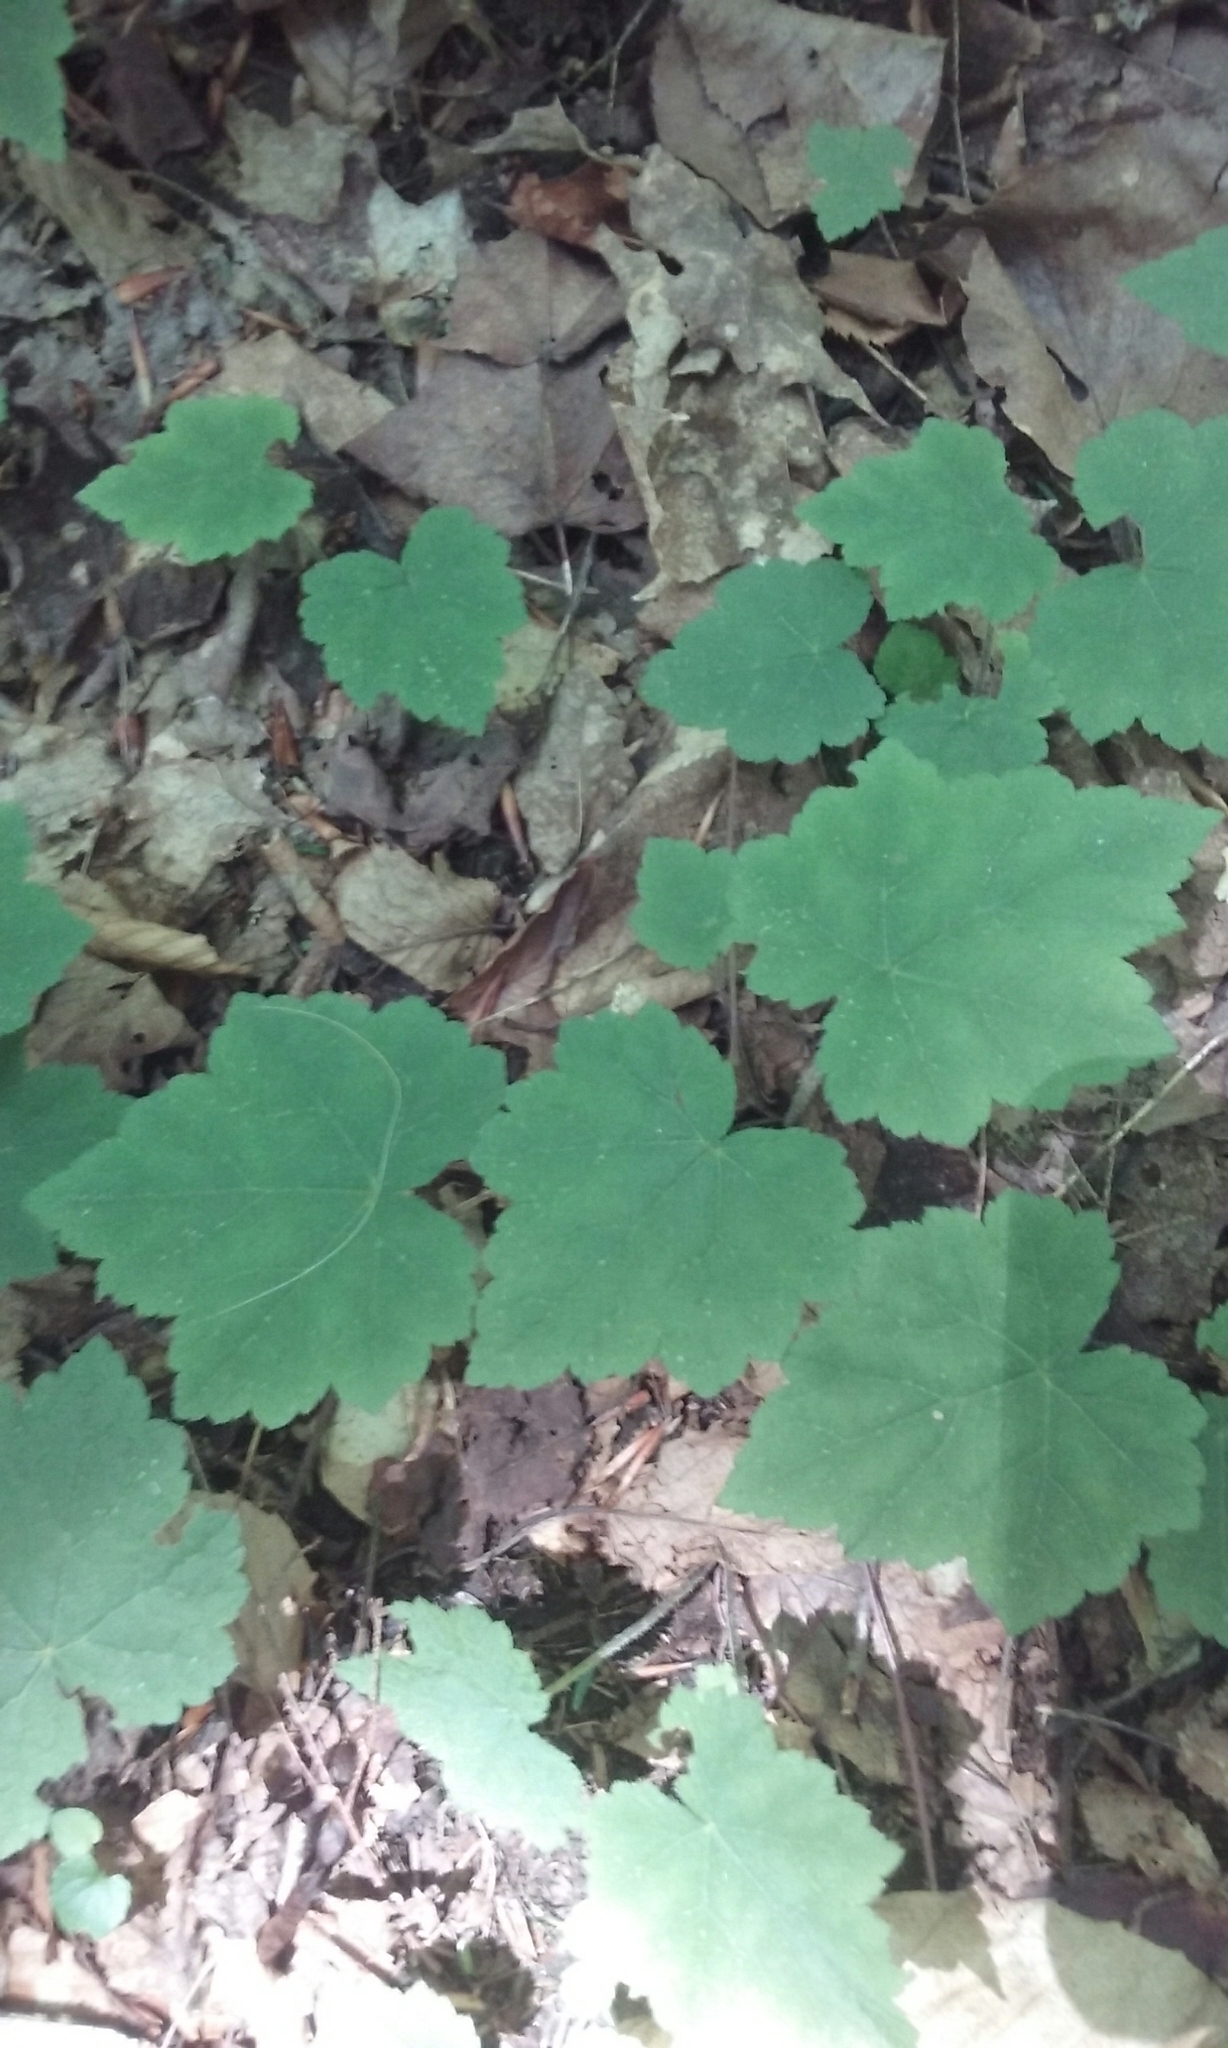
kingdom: Plantae
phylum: Tracheophyta
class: Magnoliopsida
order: Saxifragales
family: Saxifragaceae
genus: Tiarella
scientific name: Tiarella stolonifera
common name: Stoloniferous foamflower
